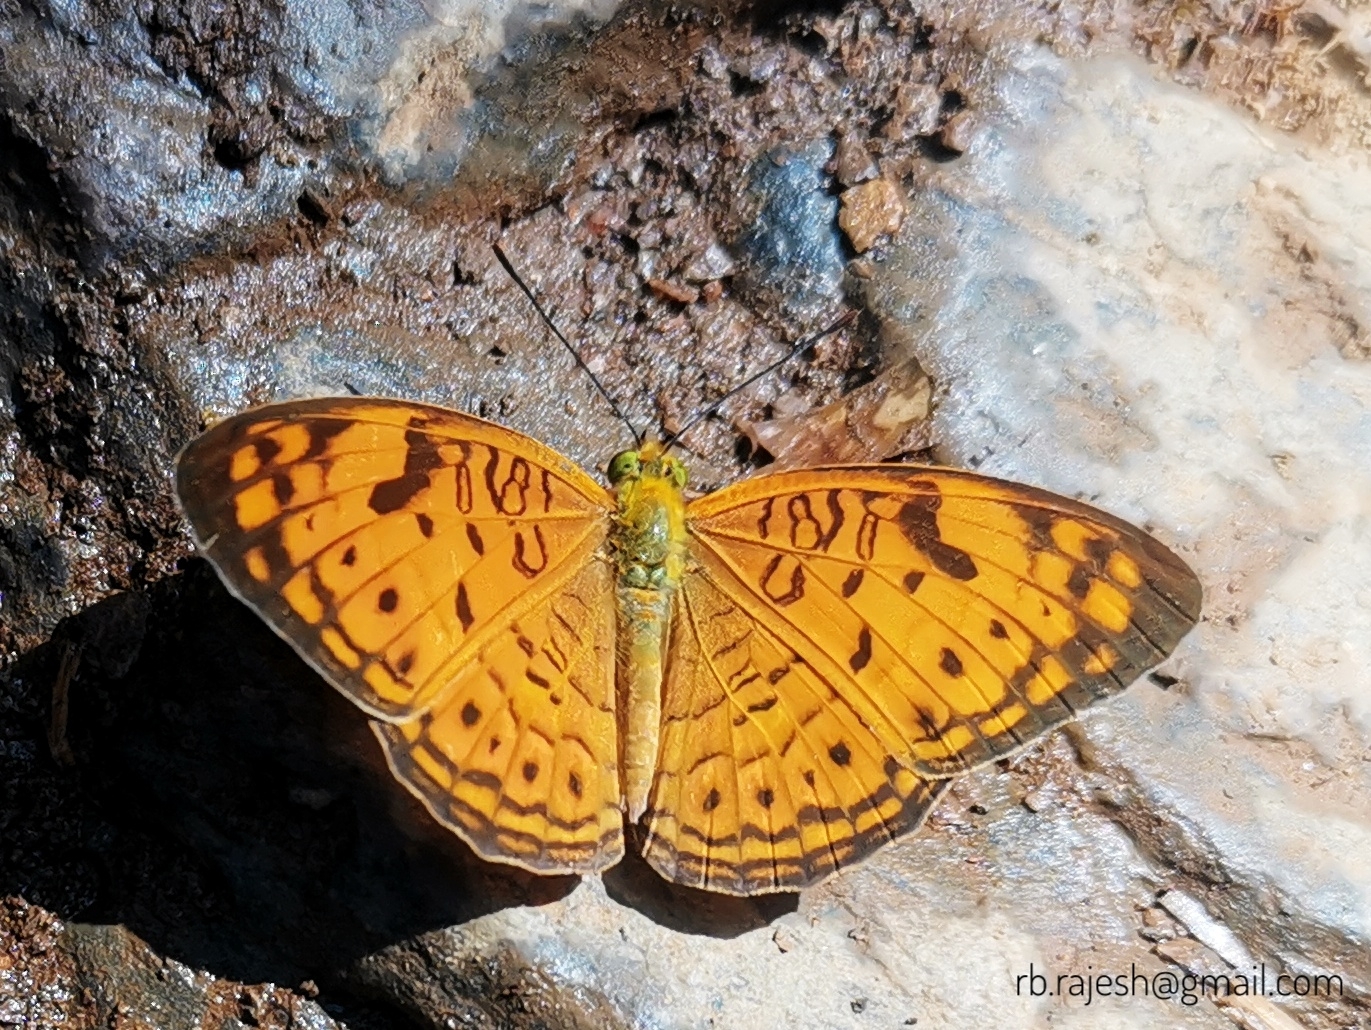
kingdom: Animalia
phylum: Arthropoda
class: Insecta
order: Lepidoptera
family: Nymphalidae
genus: Phalanta
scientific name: Phalanta alcippe
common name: Small leopard
